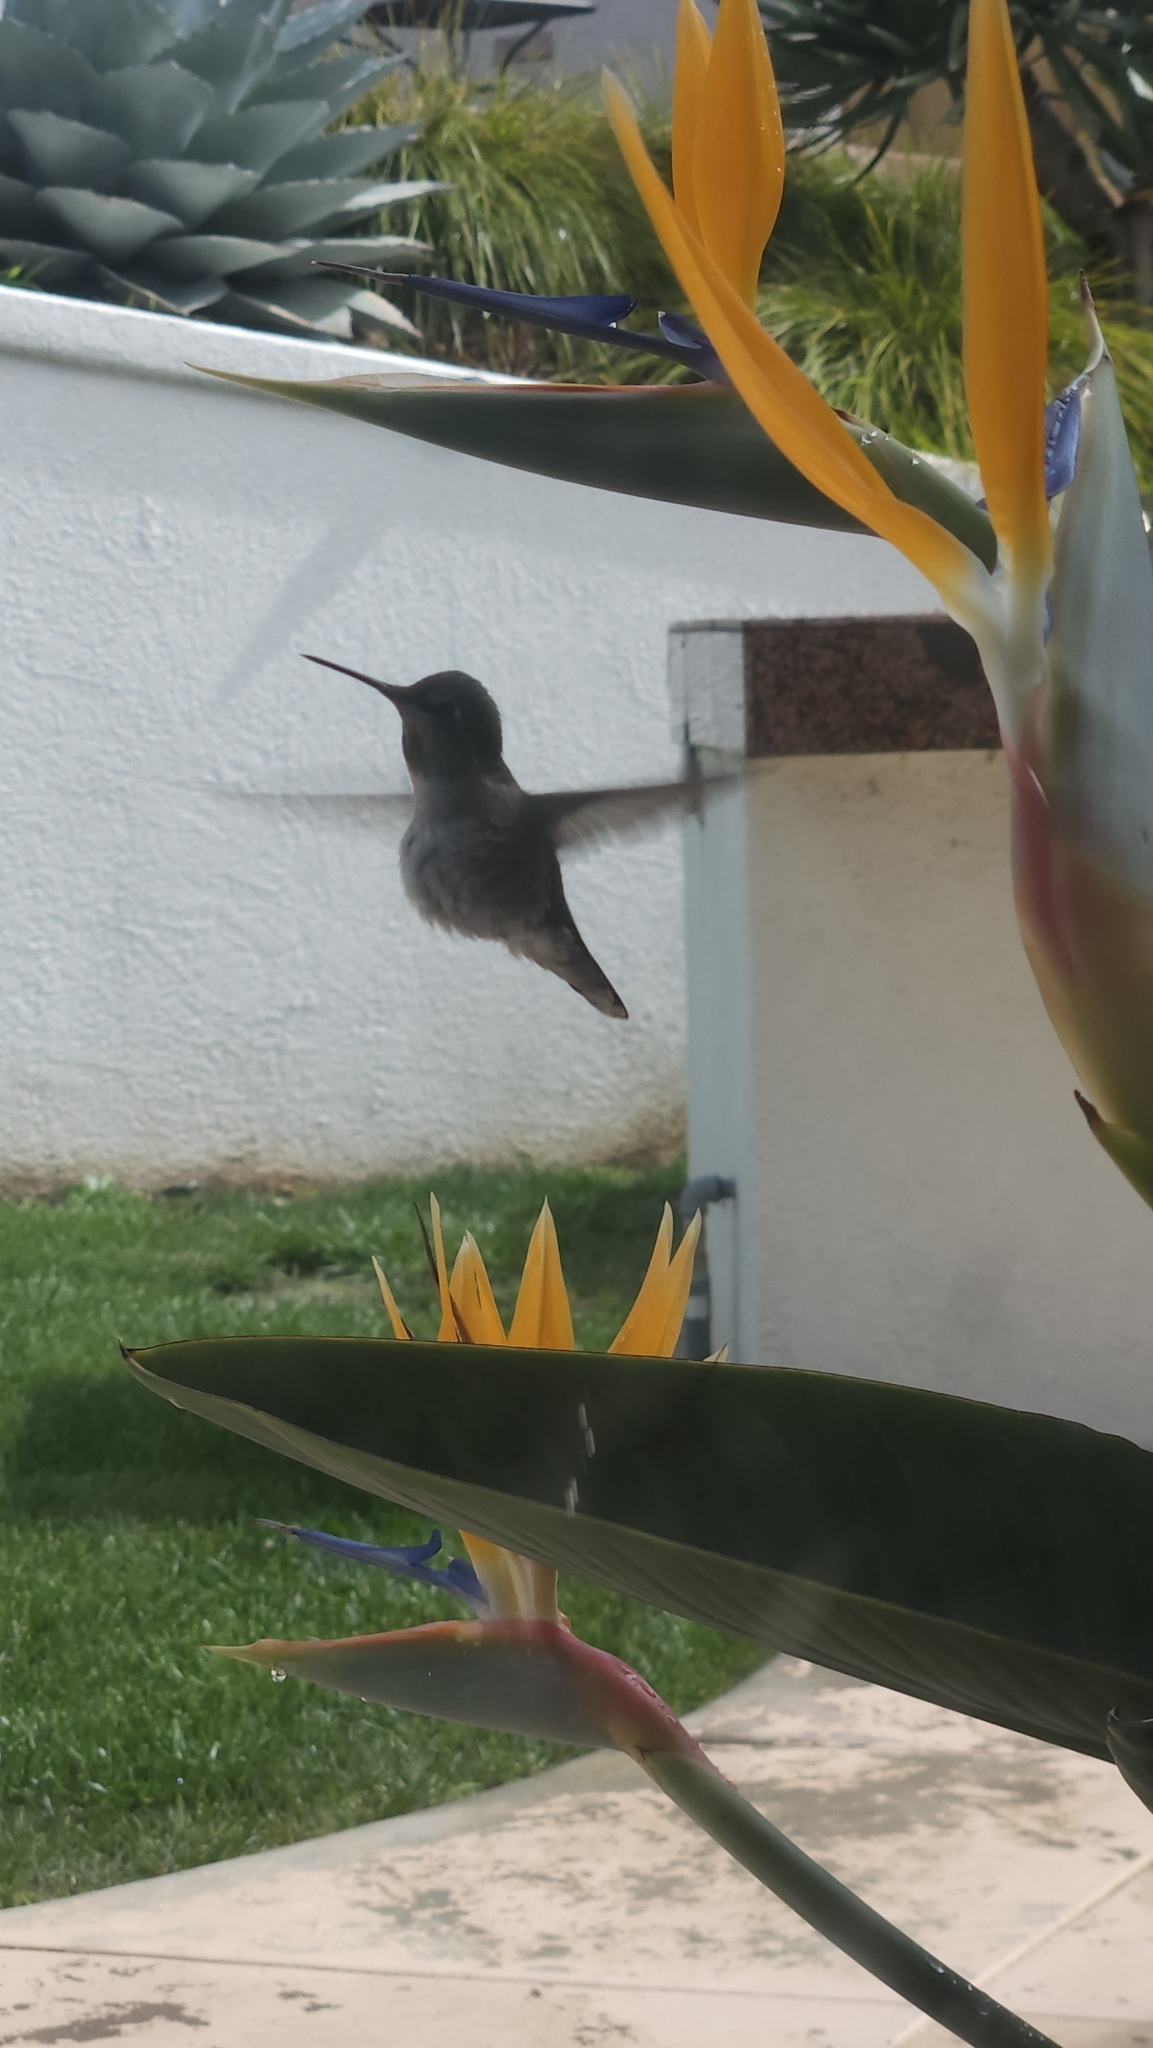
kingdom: Animalia
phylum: Chordata
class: Aves
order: Apodiformes
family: Trochilidae
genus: Calypte
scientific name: Calypte anna
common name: Anna's hummingbird
